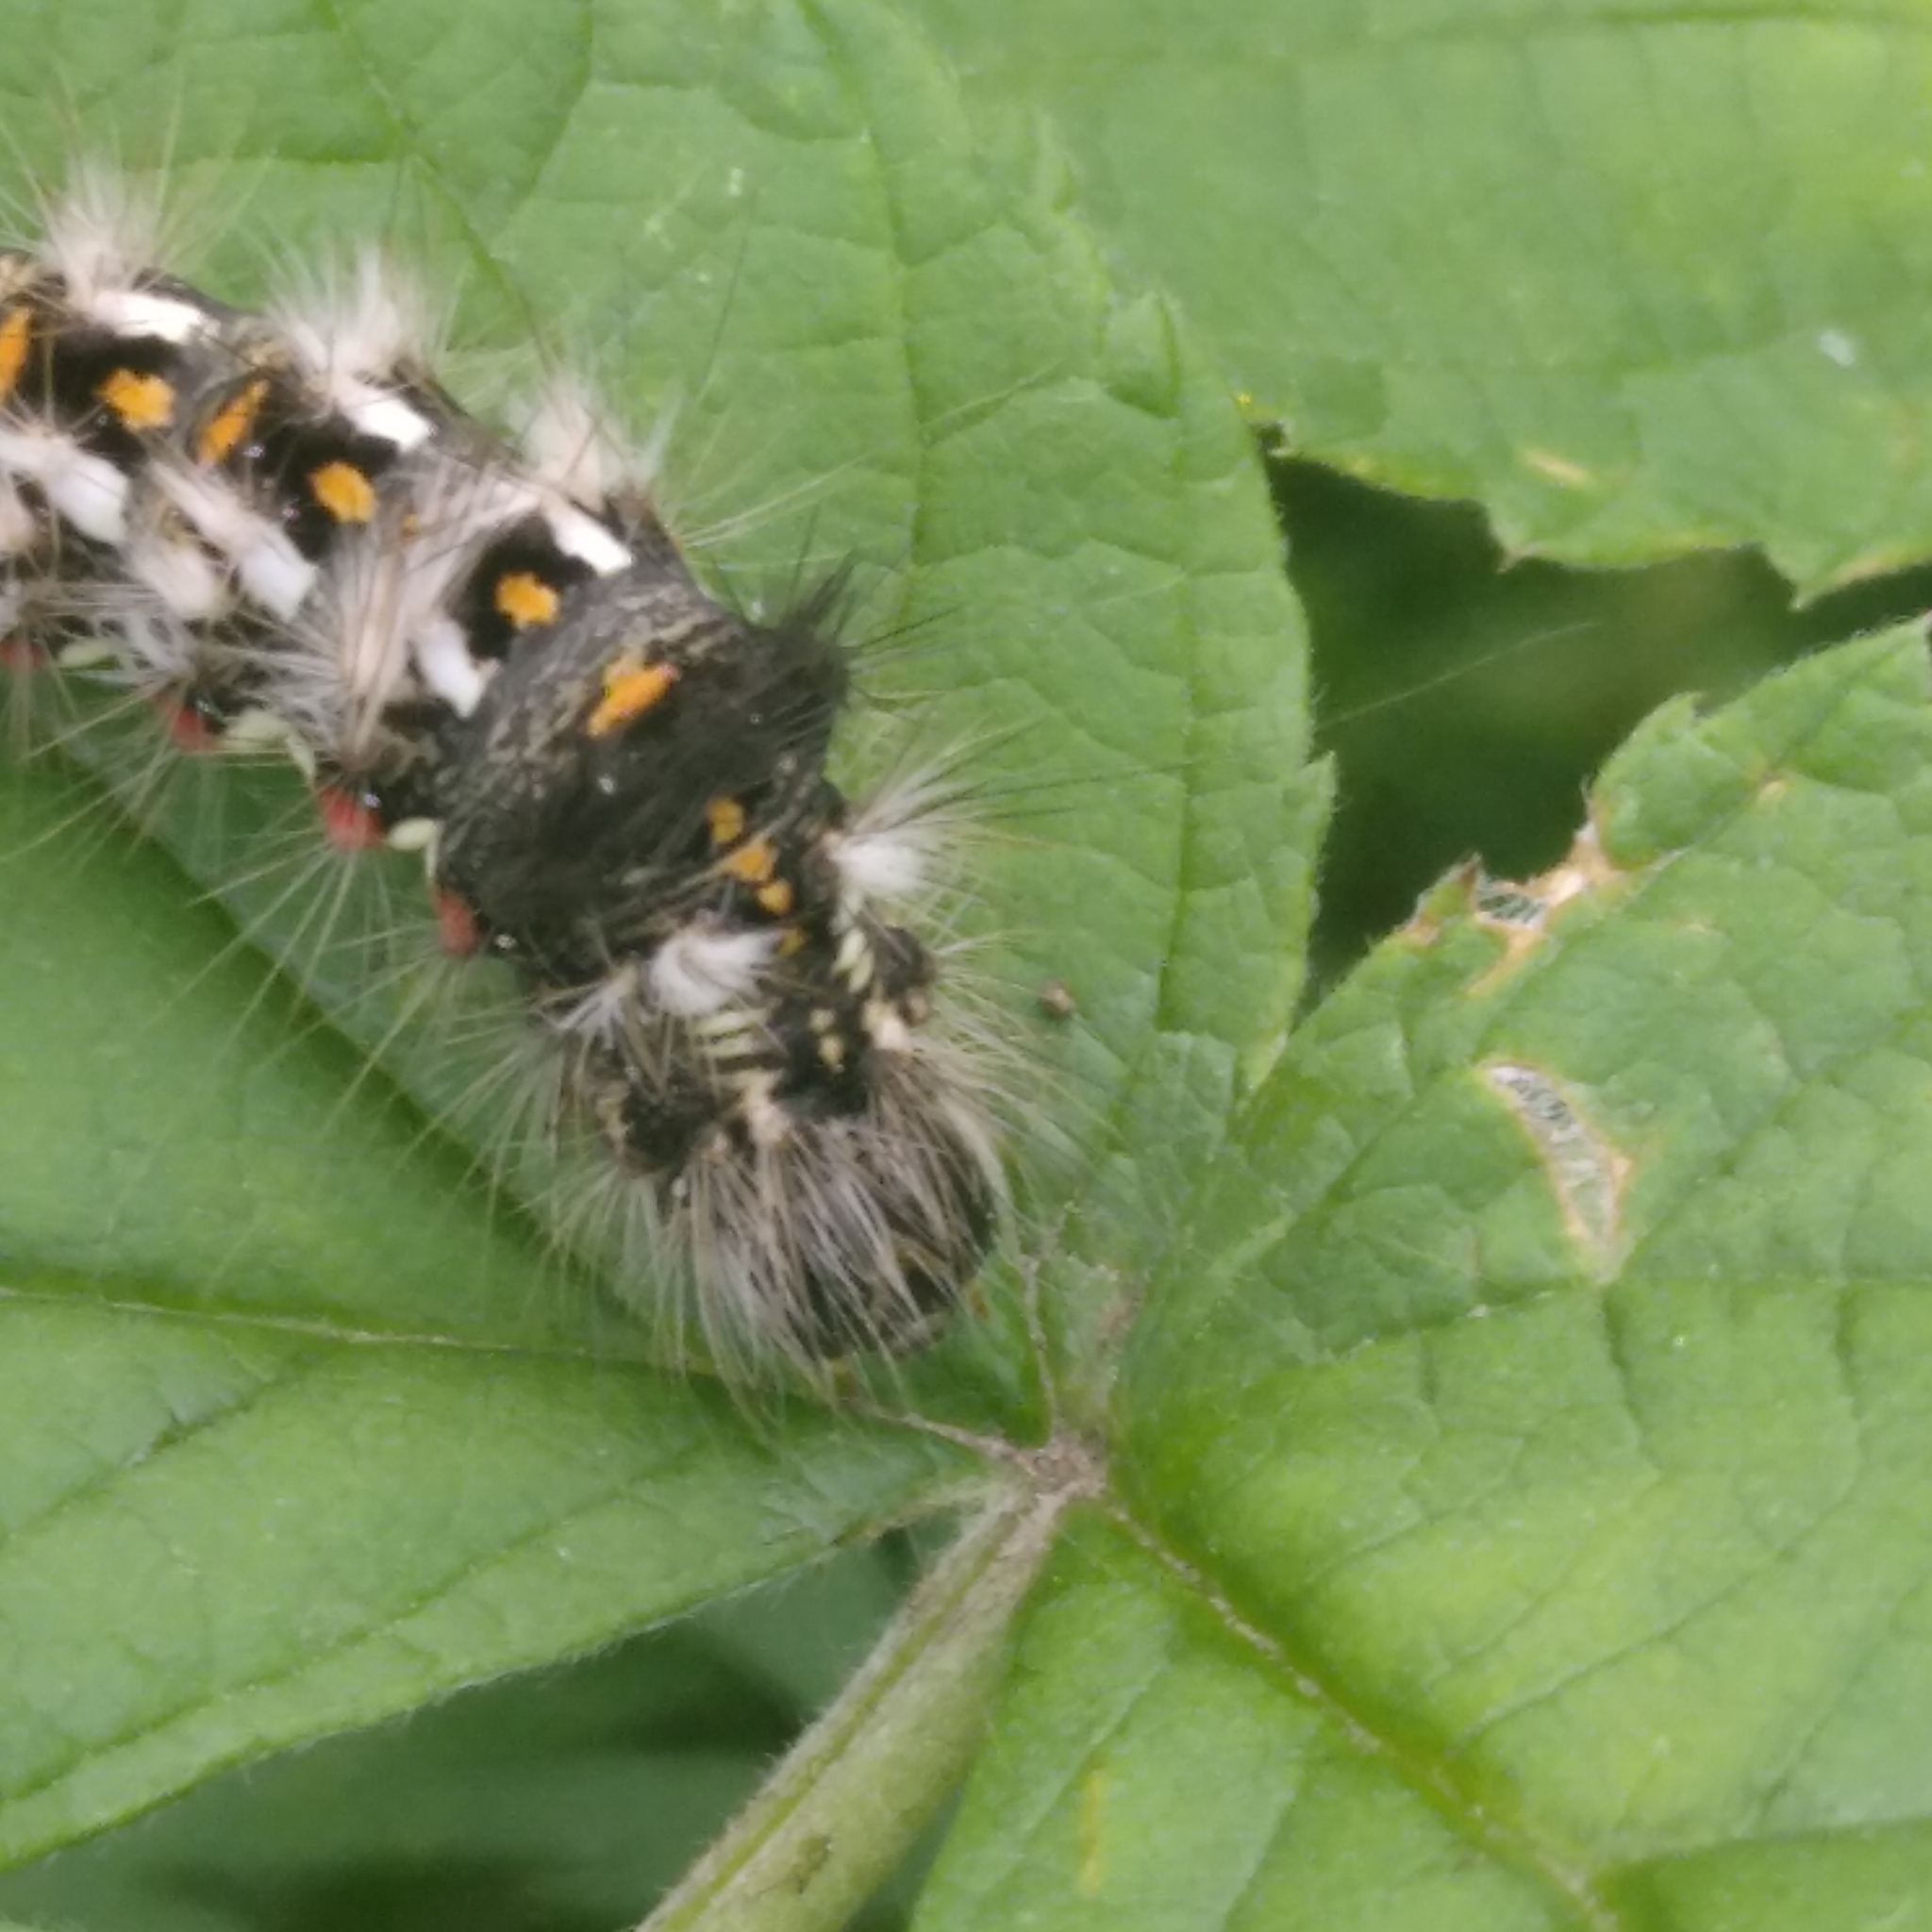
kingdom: Animalia
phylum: Arthropoda
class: Insecta
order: Lepidoptera
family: Noctuidae
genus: Acronicta
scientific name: Acronicta rumicis
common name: Knot grass
